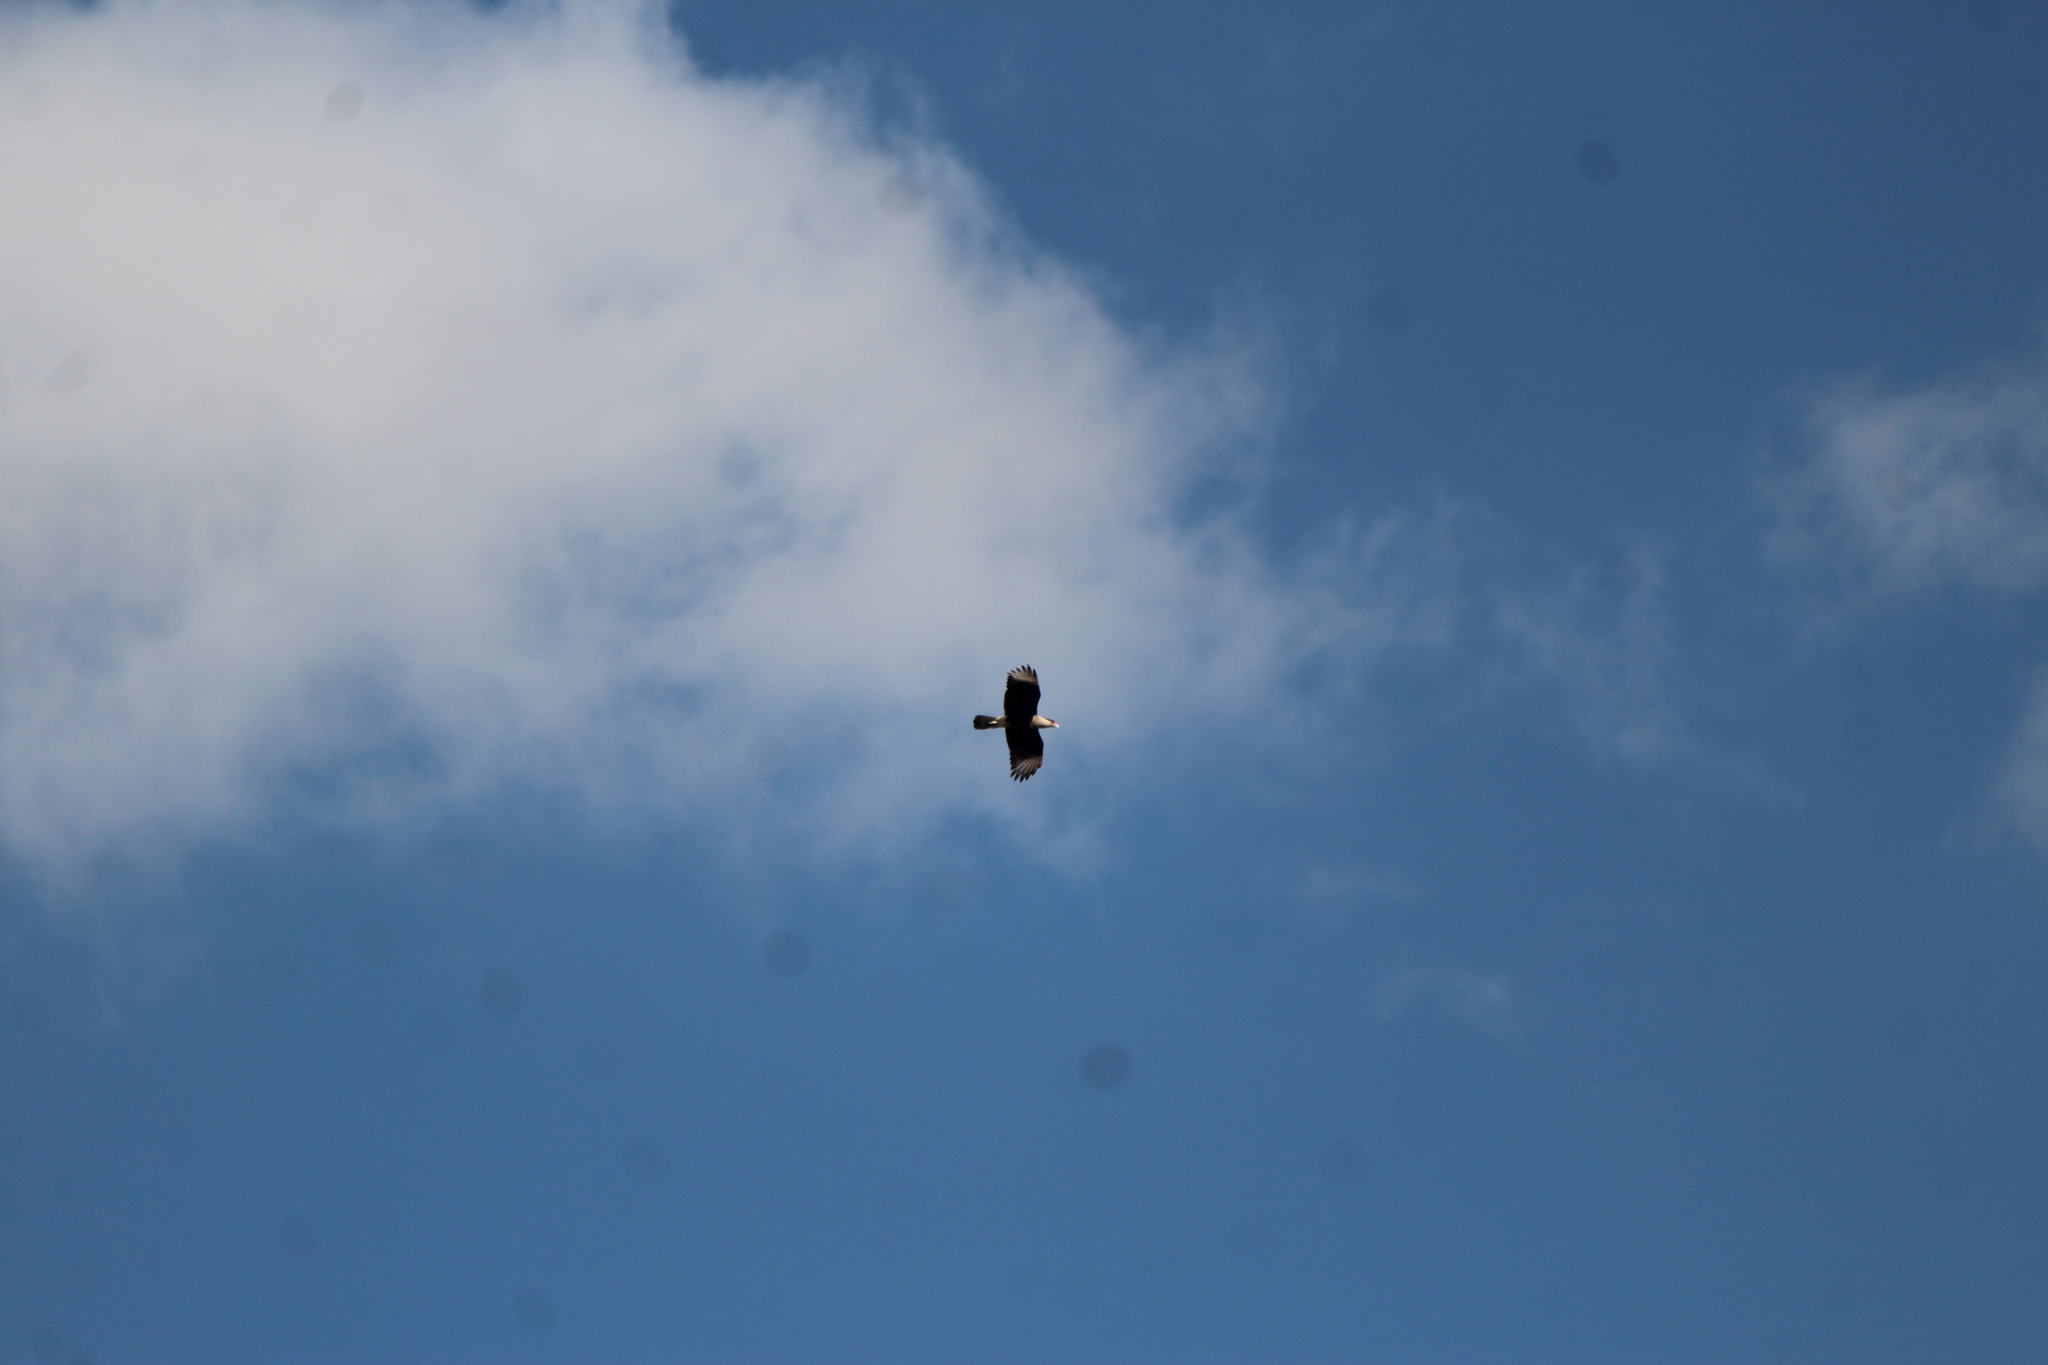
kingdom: Animalia
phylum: Chordata
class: Aves
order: Falconiformes
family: Falconidae
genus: Caracara
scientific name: Caracara plancus
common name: Southern caracara
